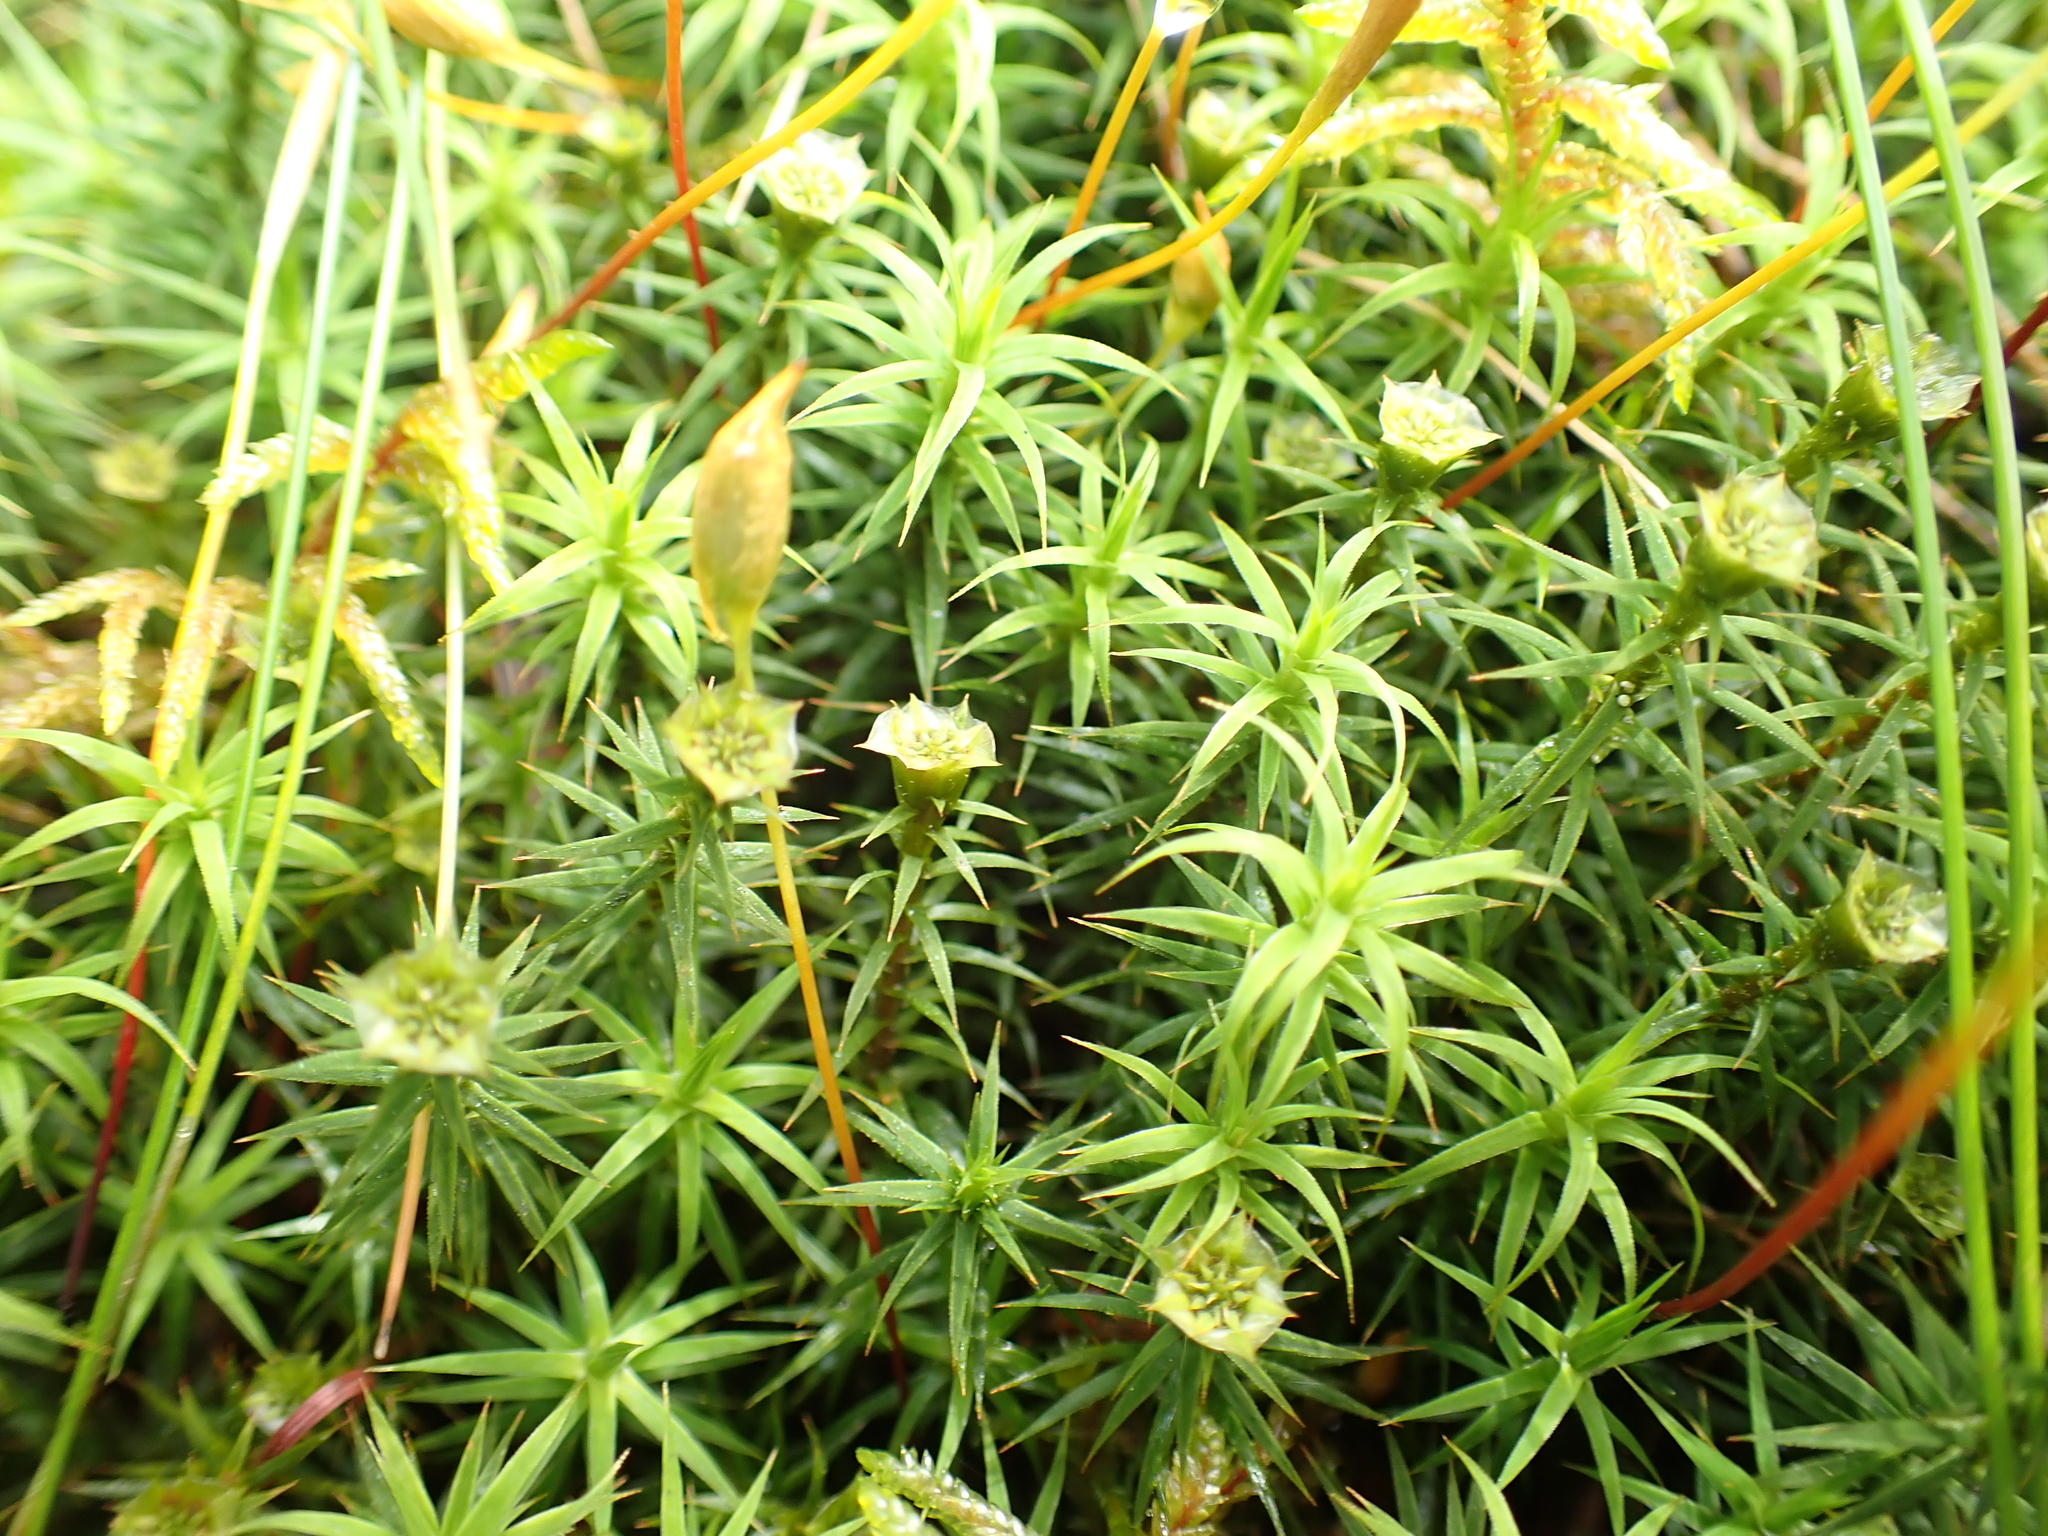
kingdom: Plantae
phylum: Bryophyta
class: Polytrichopsida
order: Polytrichales
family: Polytrichaceae
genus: Polytrichum
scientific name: Polytrichum formosum
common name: Bank haircap moss
